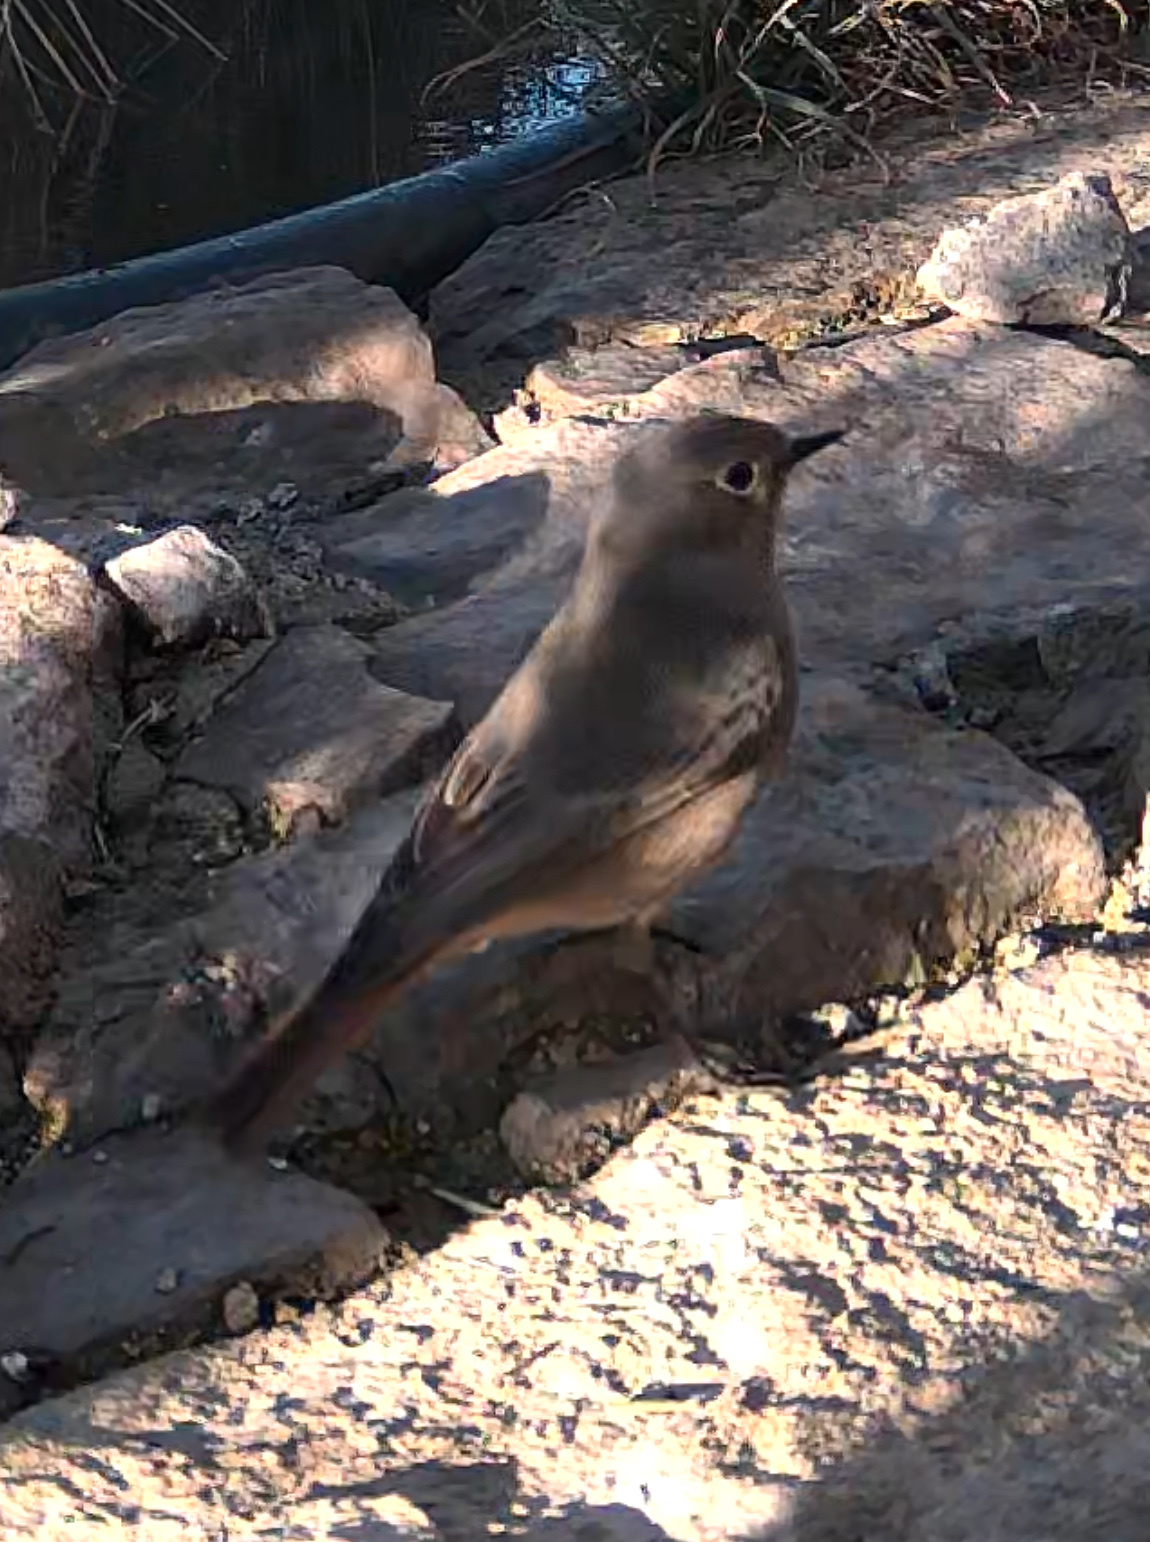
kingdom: Animalia
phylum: Chordata
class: Aves
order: Passeriformes
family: Muscicapidae
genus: Phoenicurus
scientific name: Phoenicurus ochruros
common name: Black redstart
